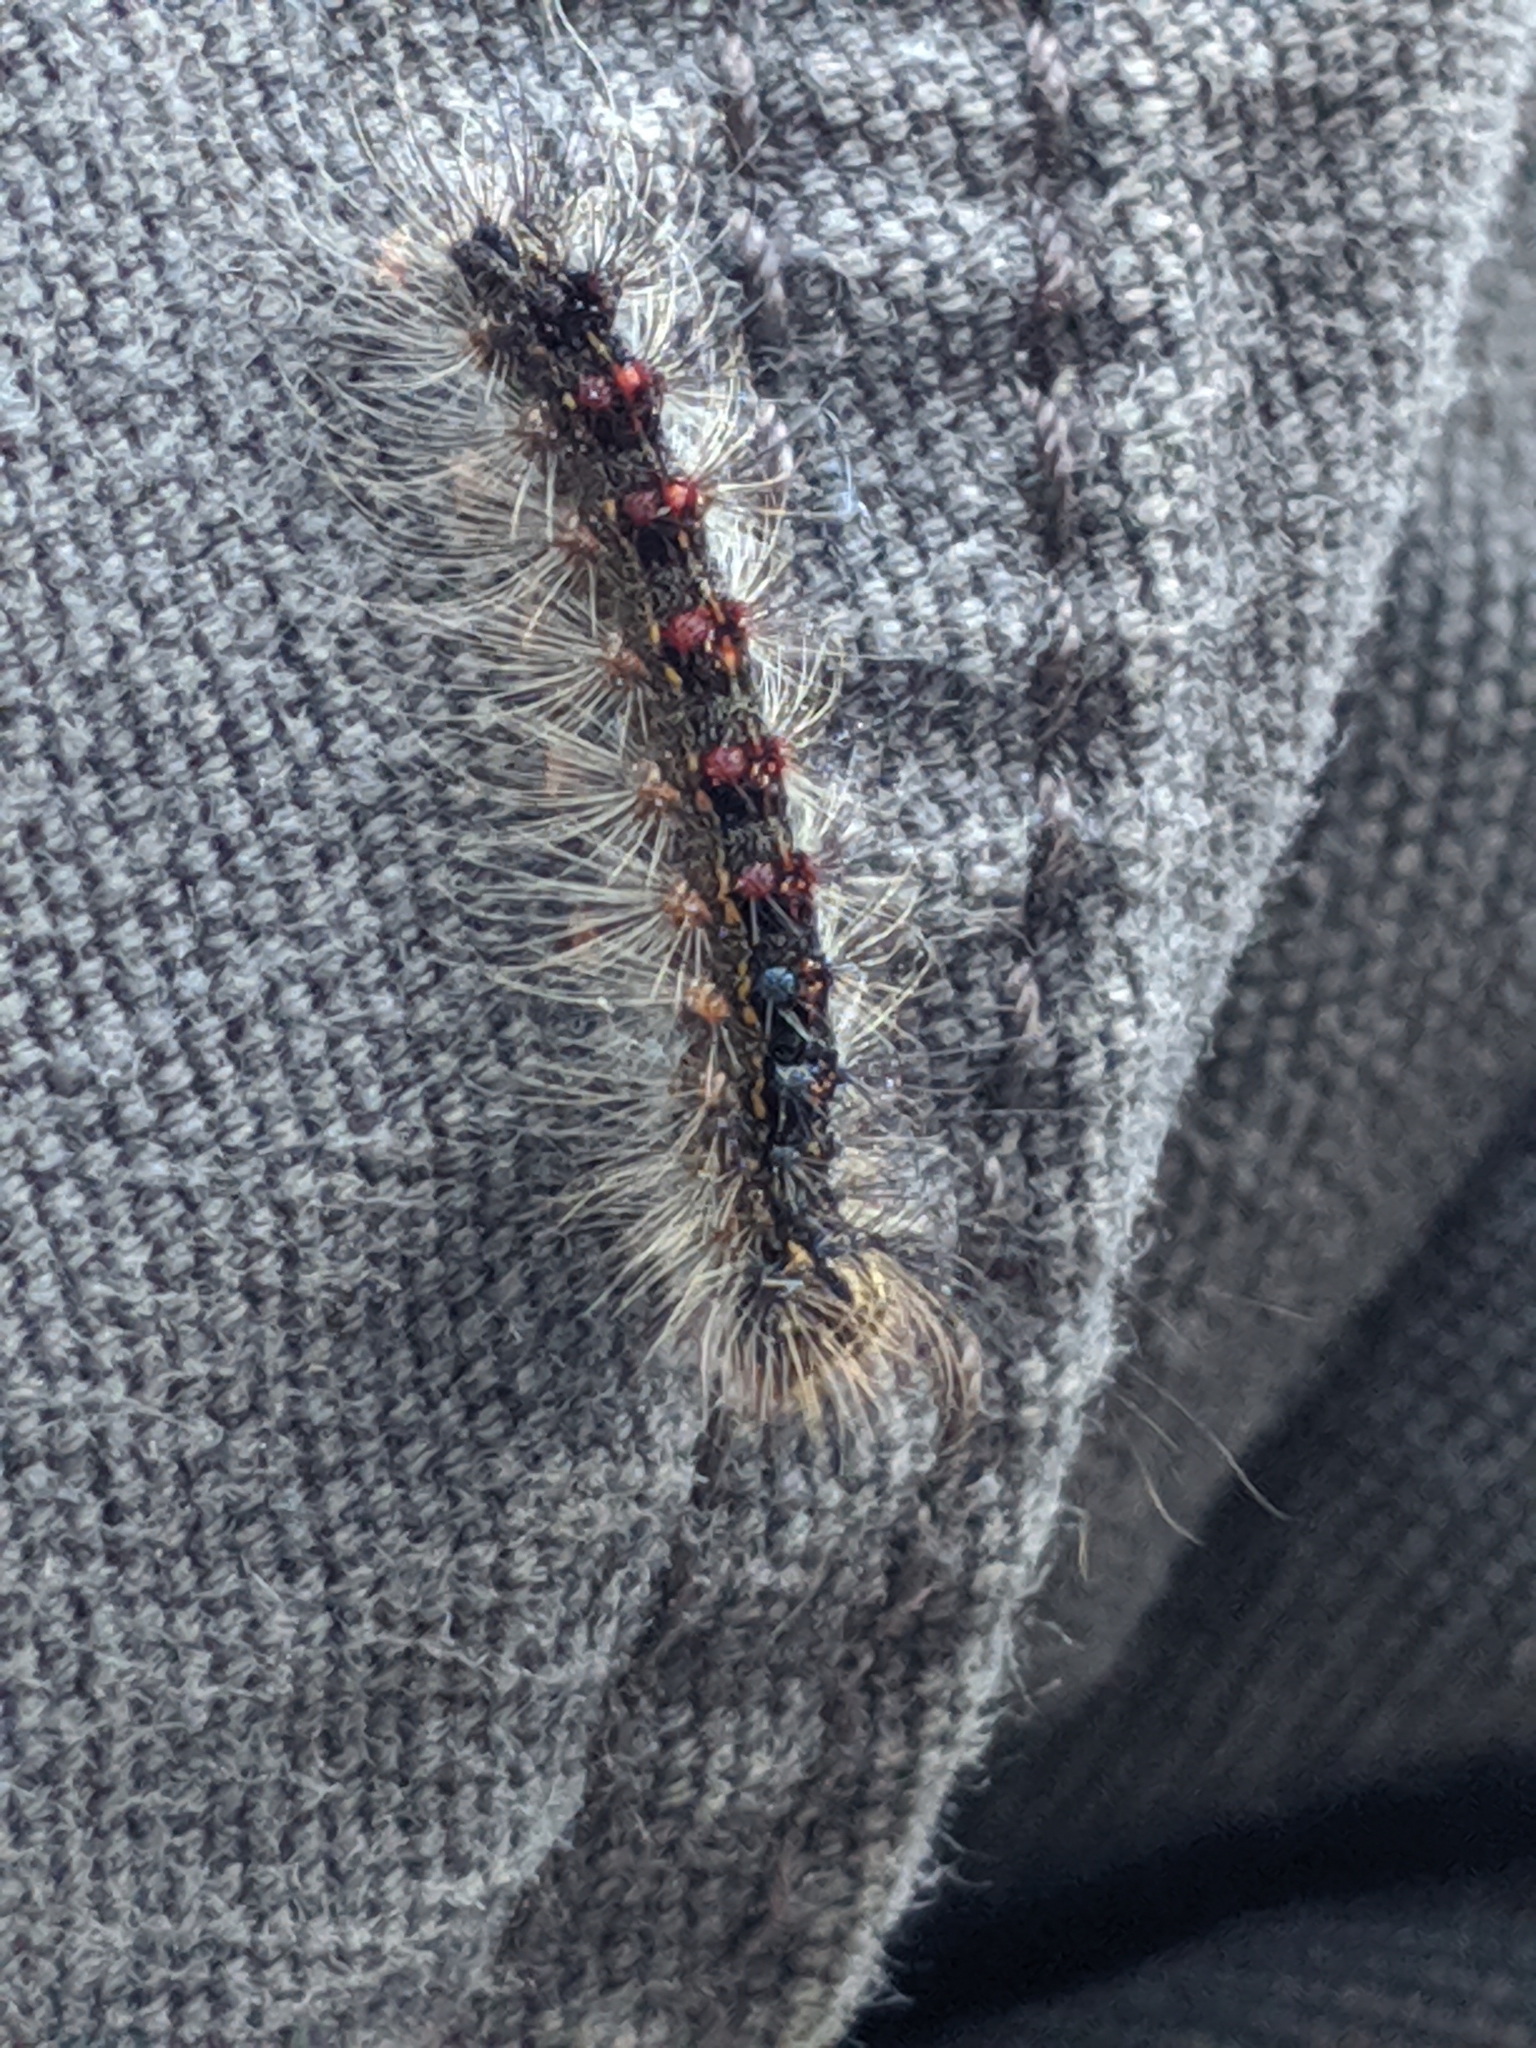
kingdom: Animalia
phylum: Arthropoda
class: Insecta
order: Lepidoptera
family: Erebidae
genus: Lymantria
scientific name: Lymantria dispar
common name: Gypsy moth
